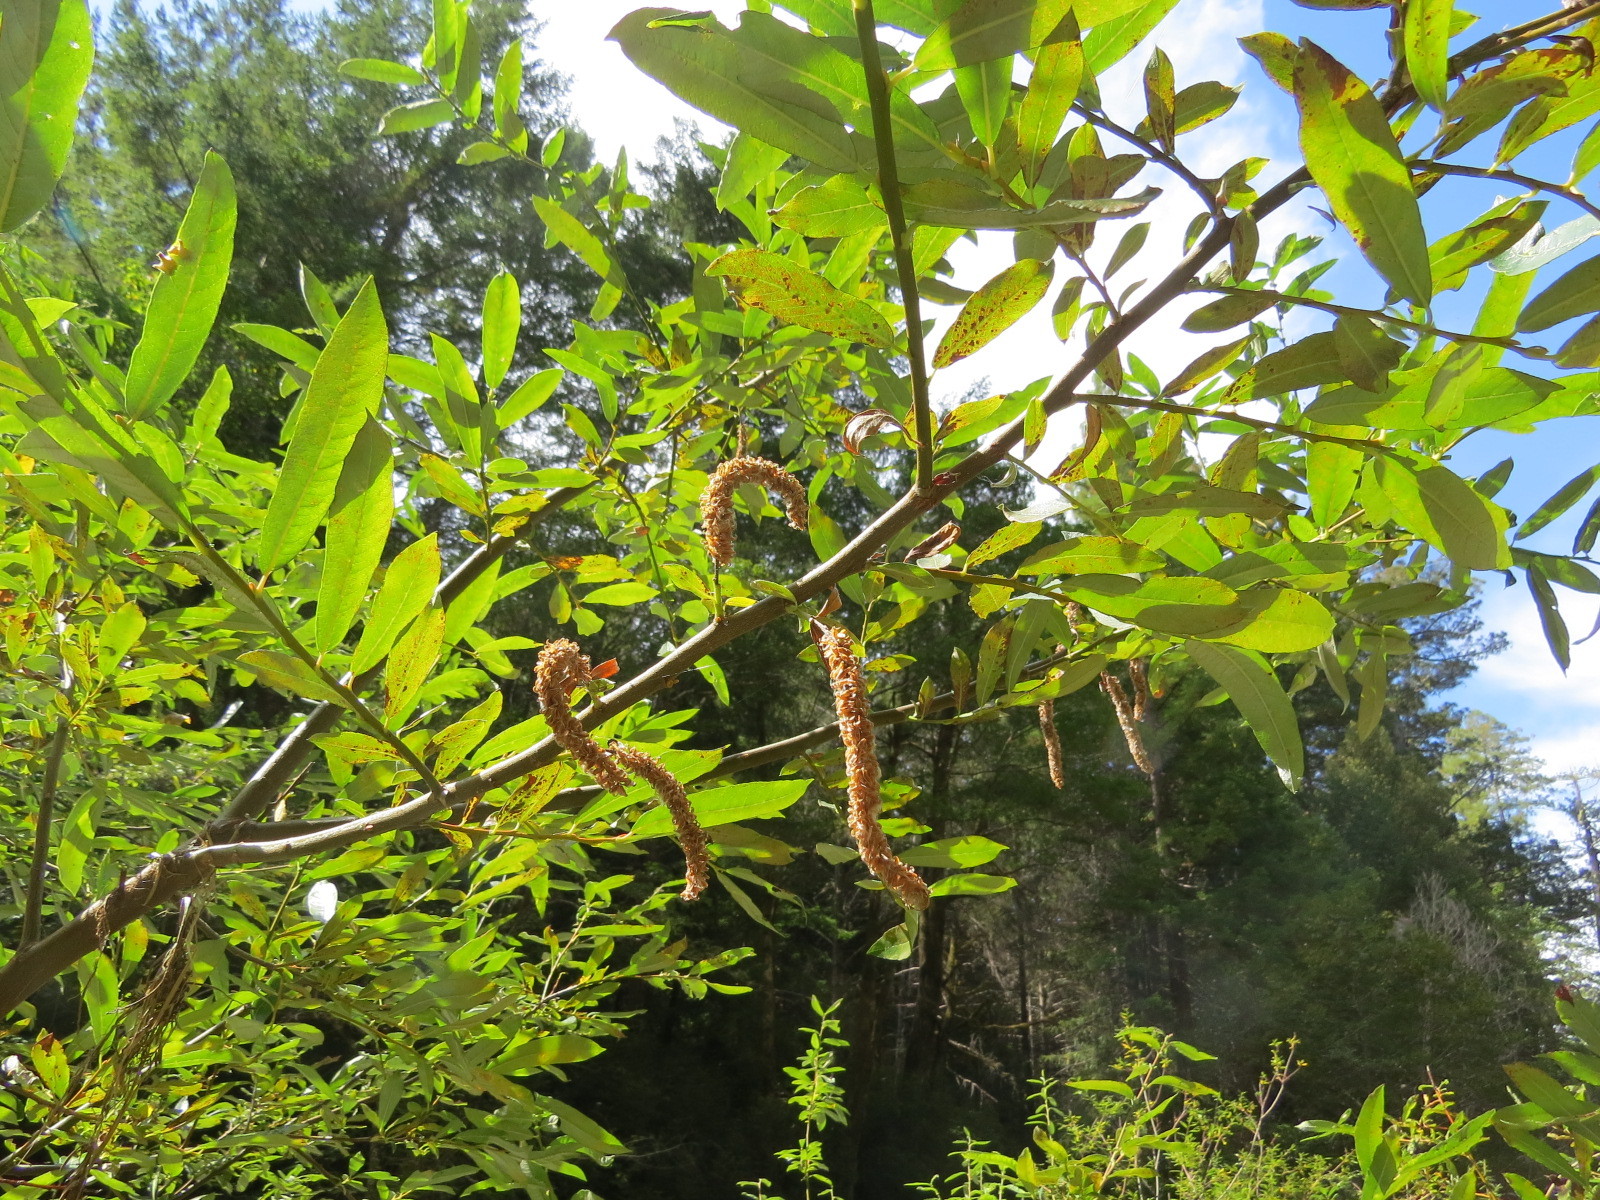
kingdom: Fungi
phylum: Basidiomycota
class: Pucciniomycetes
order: Pucciniales
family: Melampsoraceae
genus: Melampsora
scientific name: Melampsora epitea
